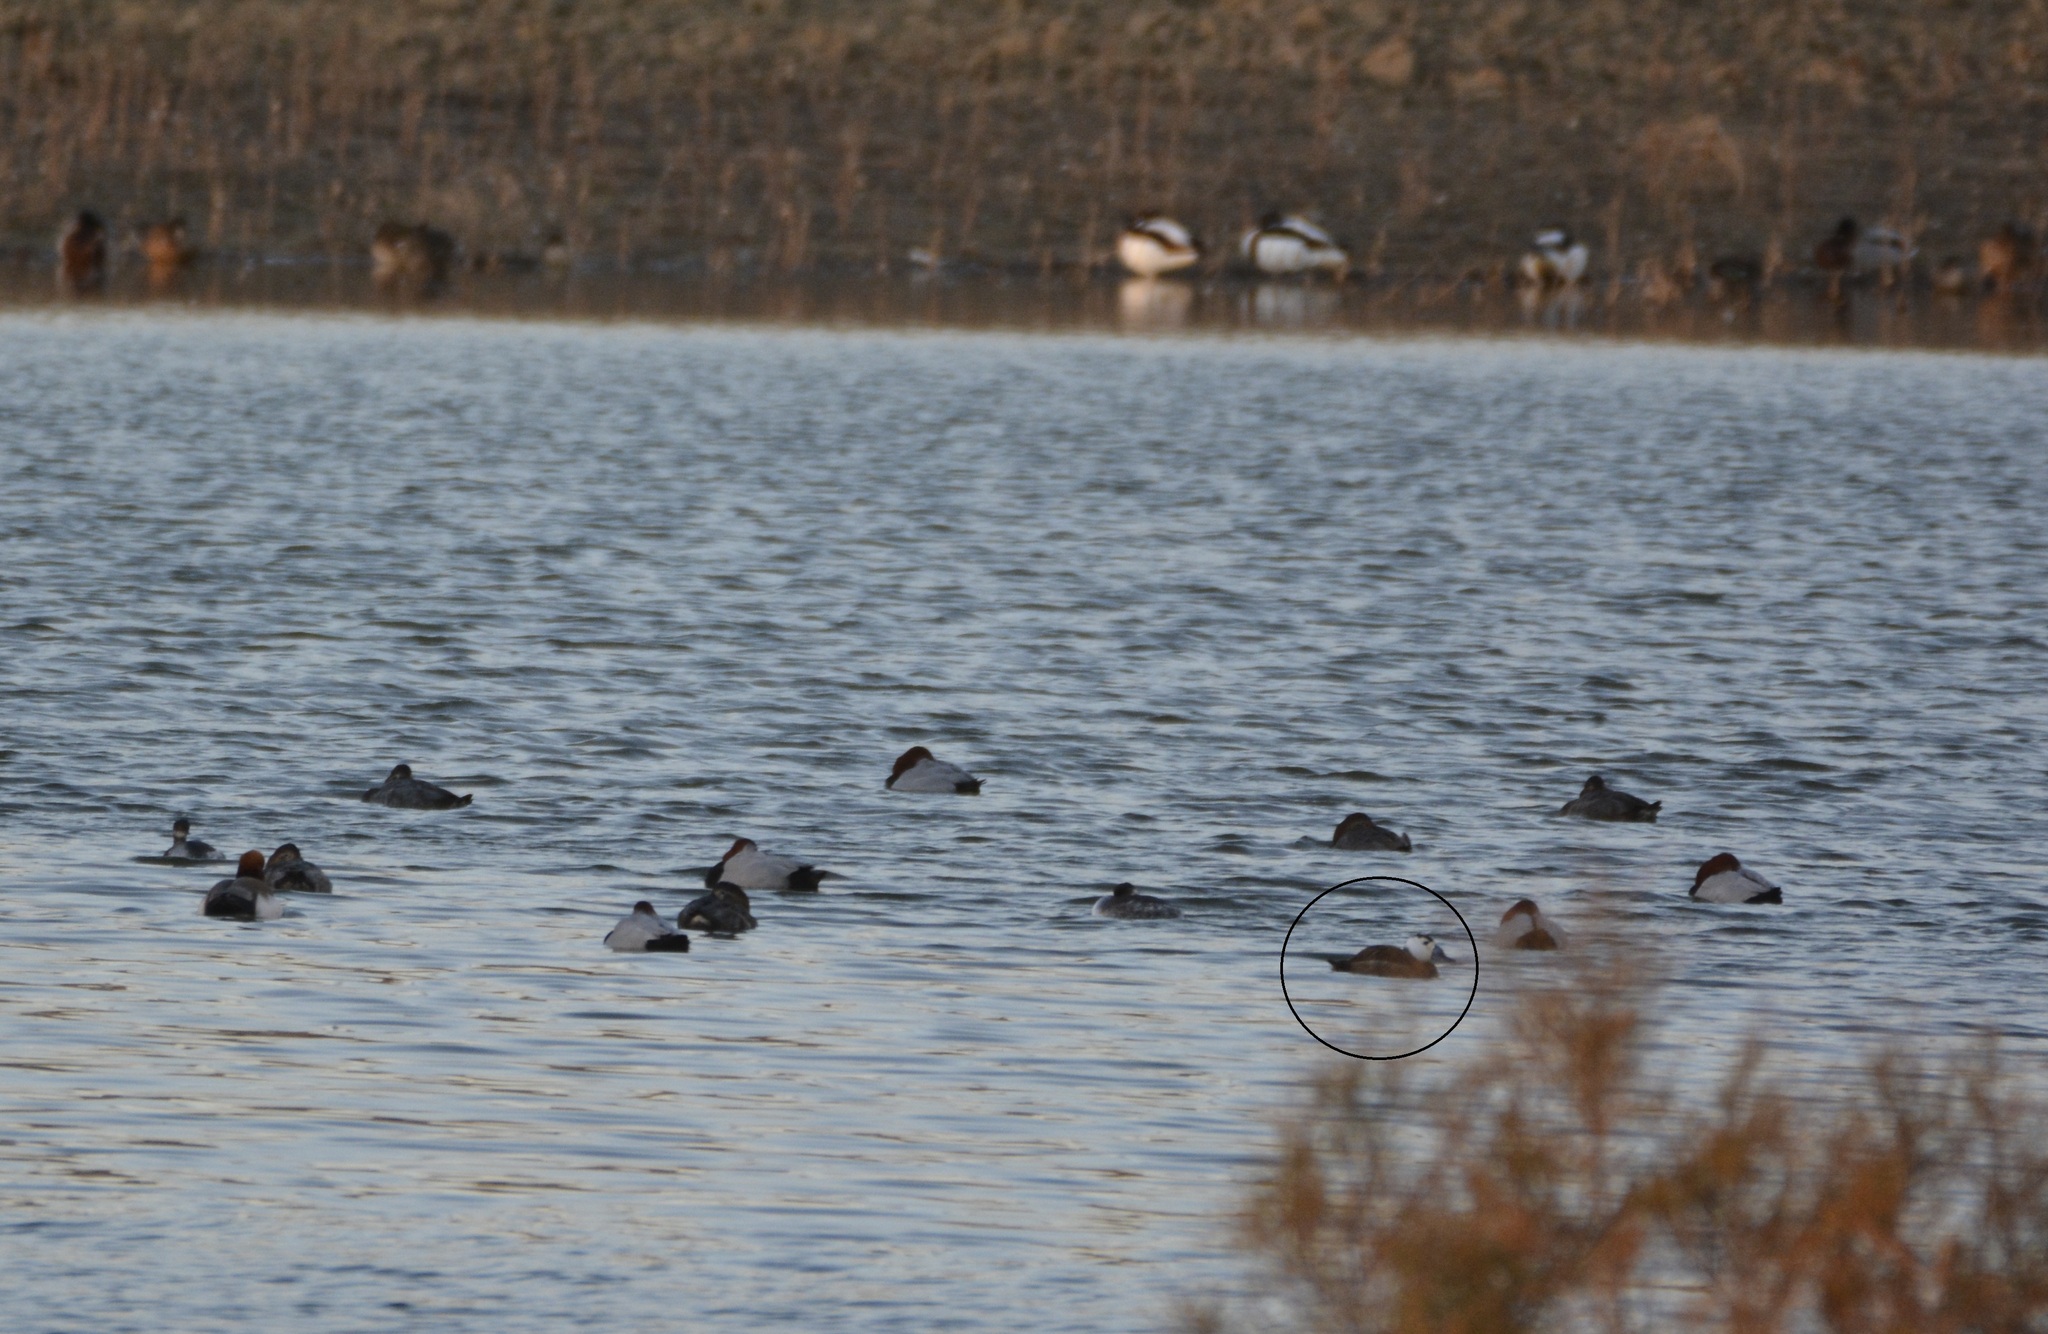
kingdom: Animalia
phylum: Chordata
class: Aves
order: Anseriformes
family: Anatidae
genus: Oxyura
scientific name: Oxyura leucocephala
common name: White-headed duck
